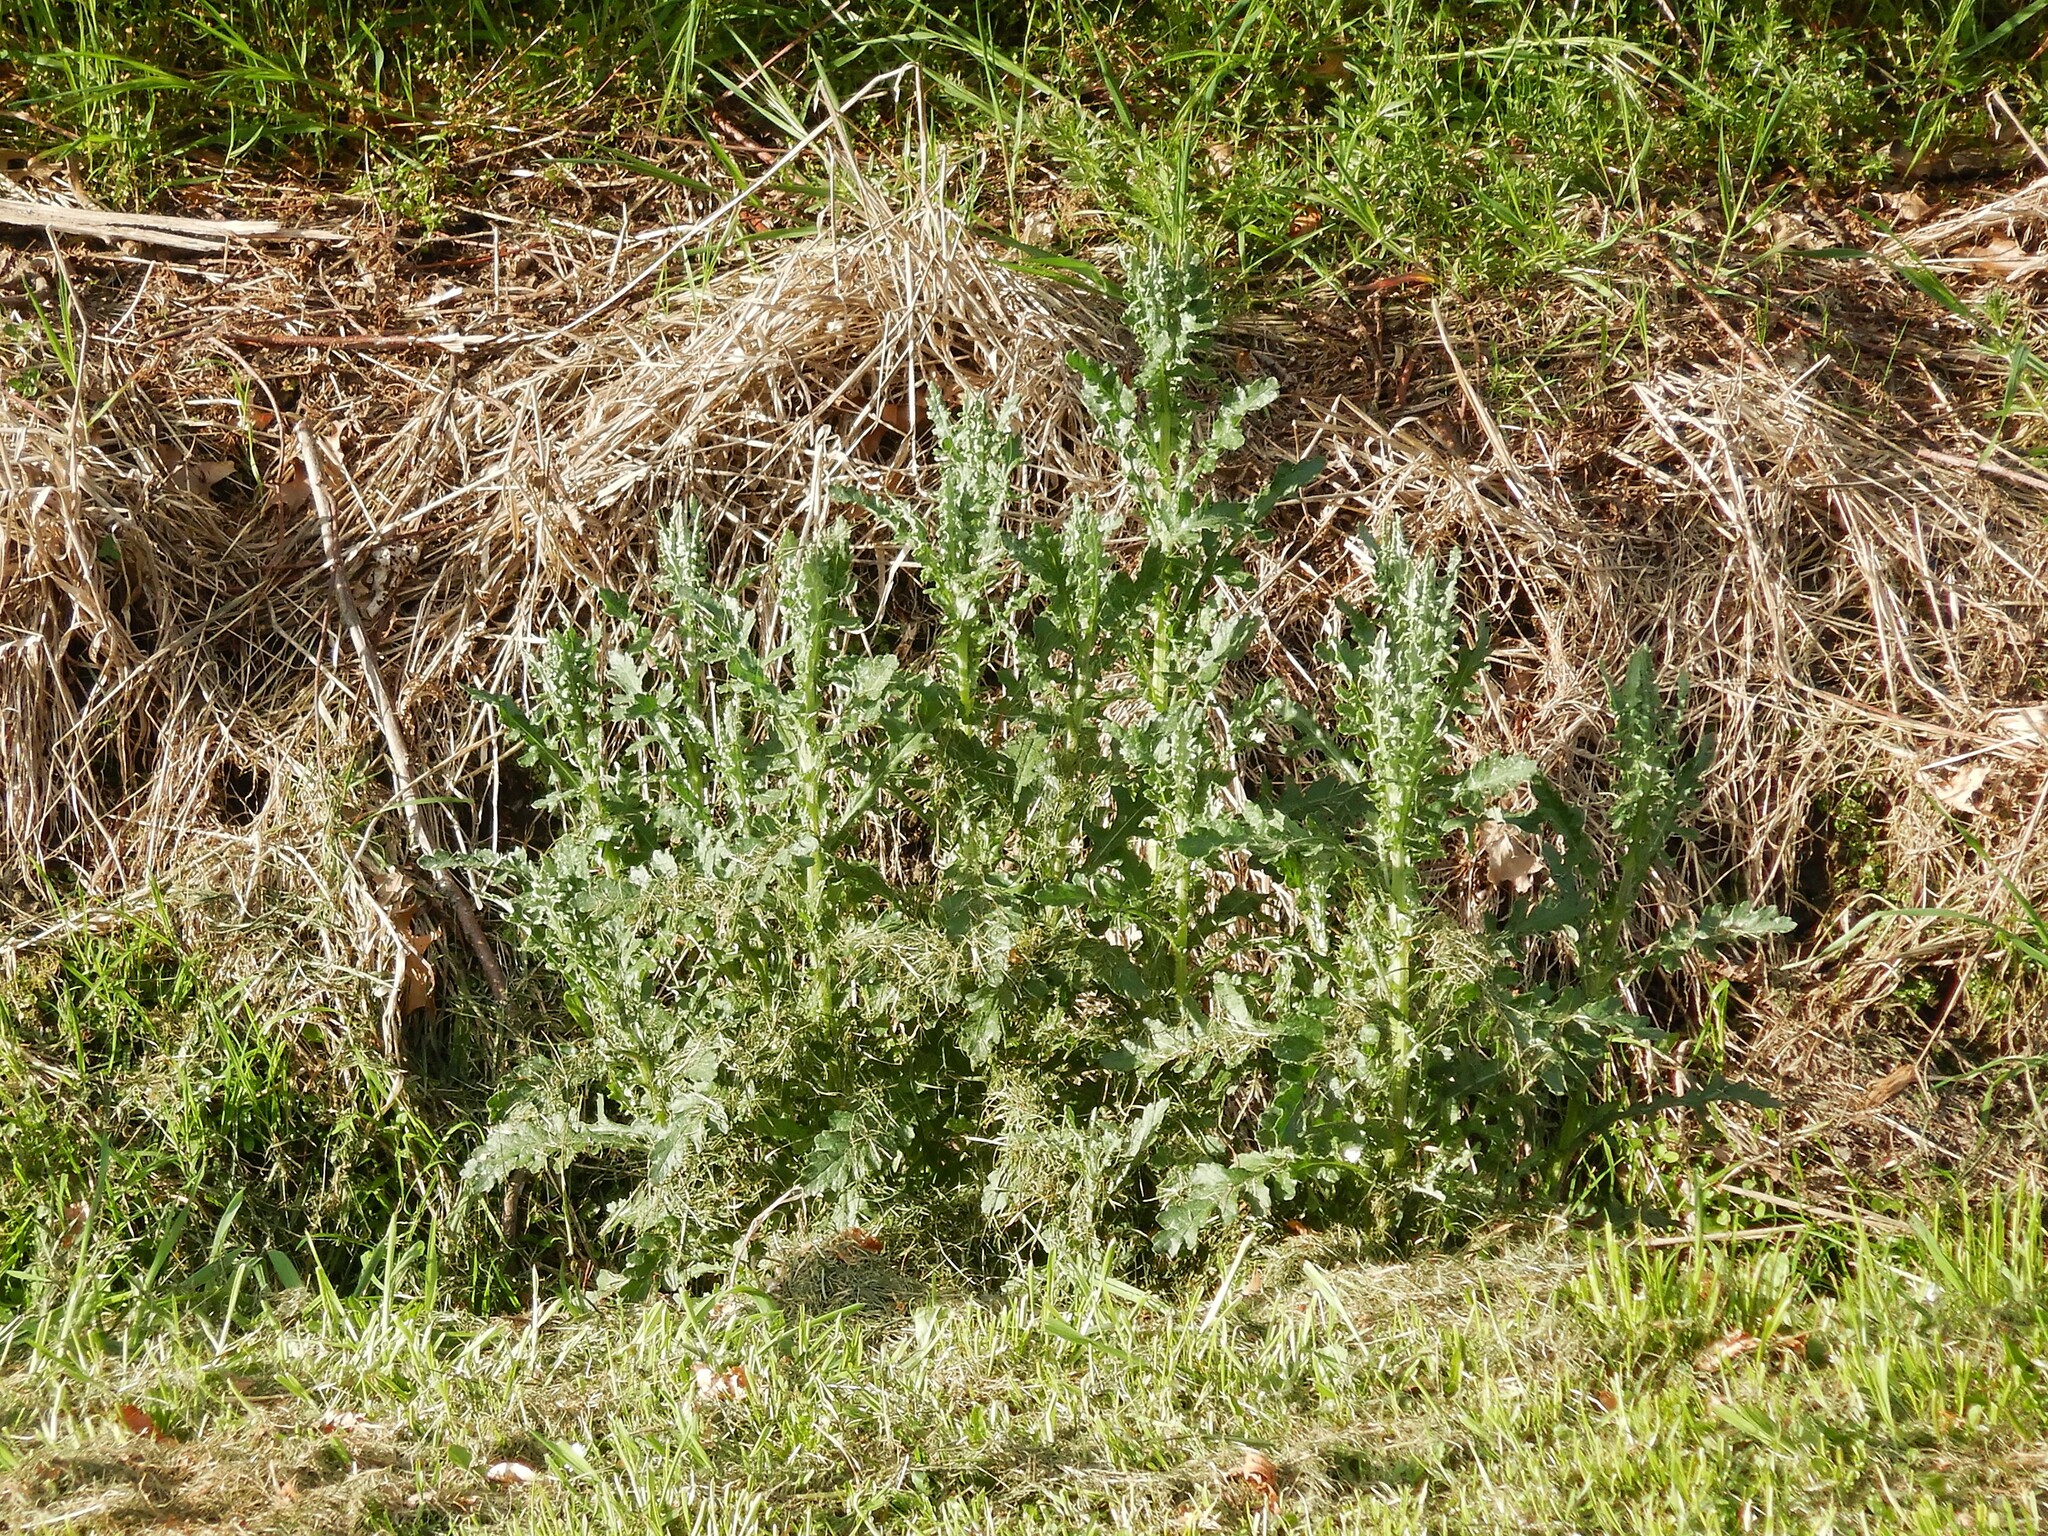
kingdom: Plantae
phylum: Tracheophyta
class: Magnoliopsida
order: Asterales
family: Asteraceae
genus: Senecio
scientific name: Senecio glomeratus
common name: Cutleaf burnweed
